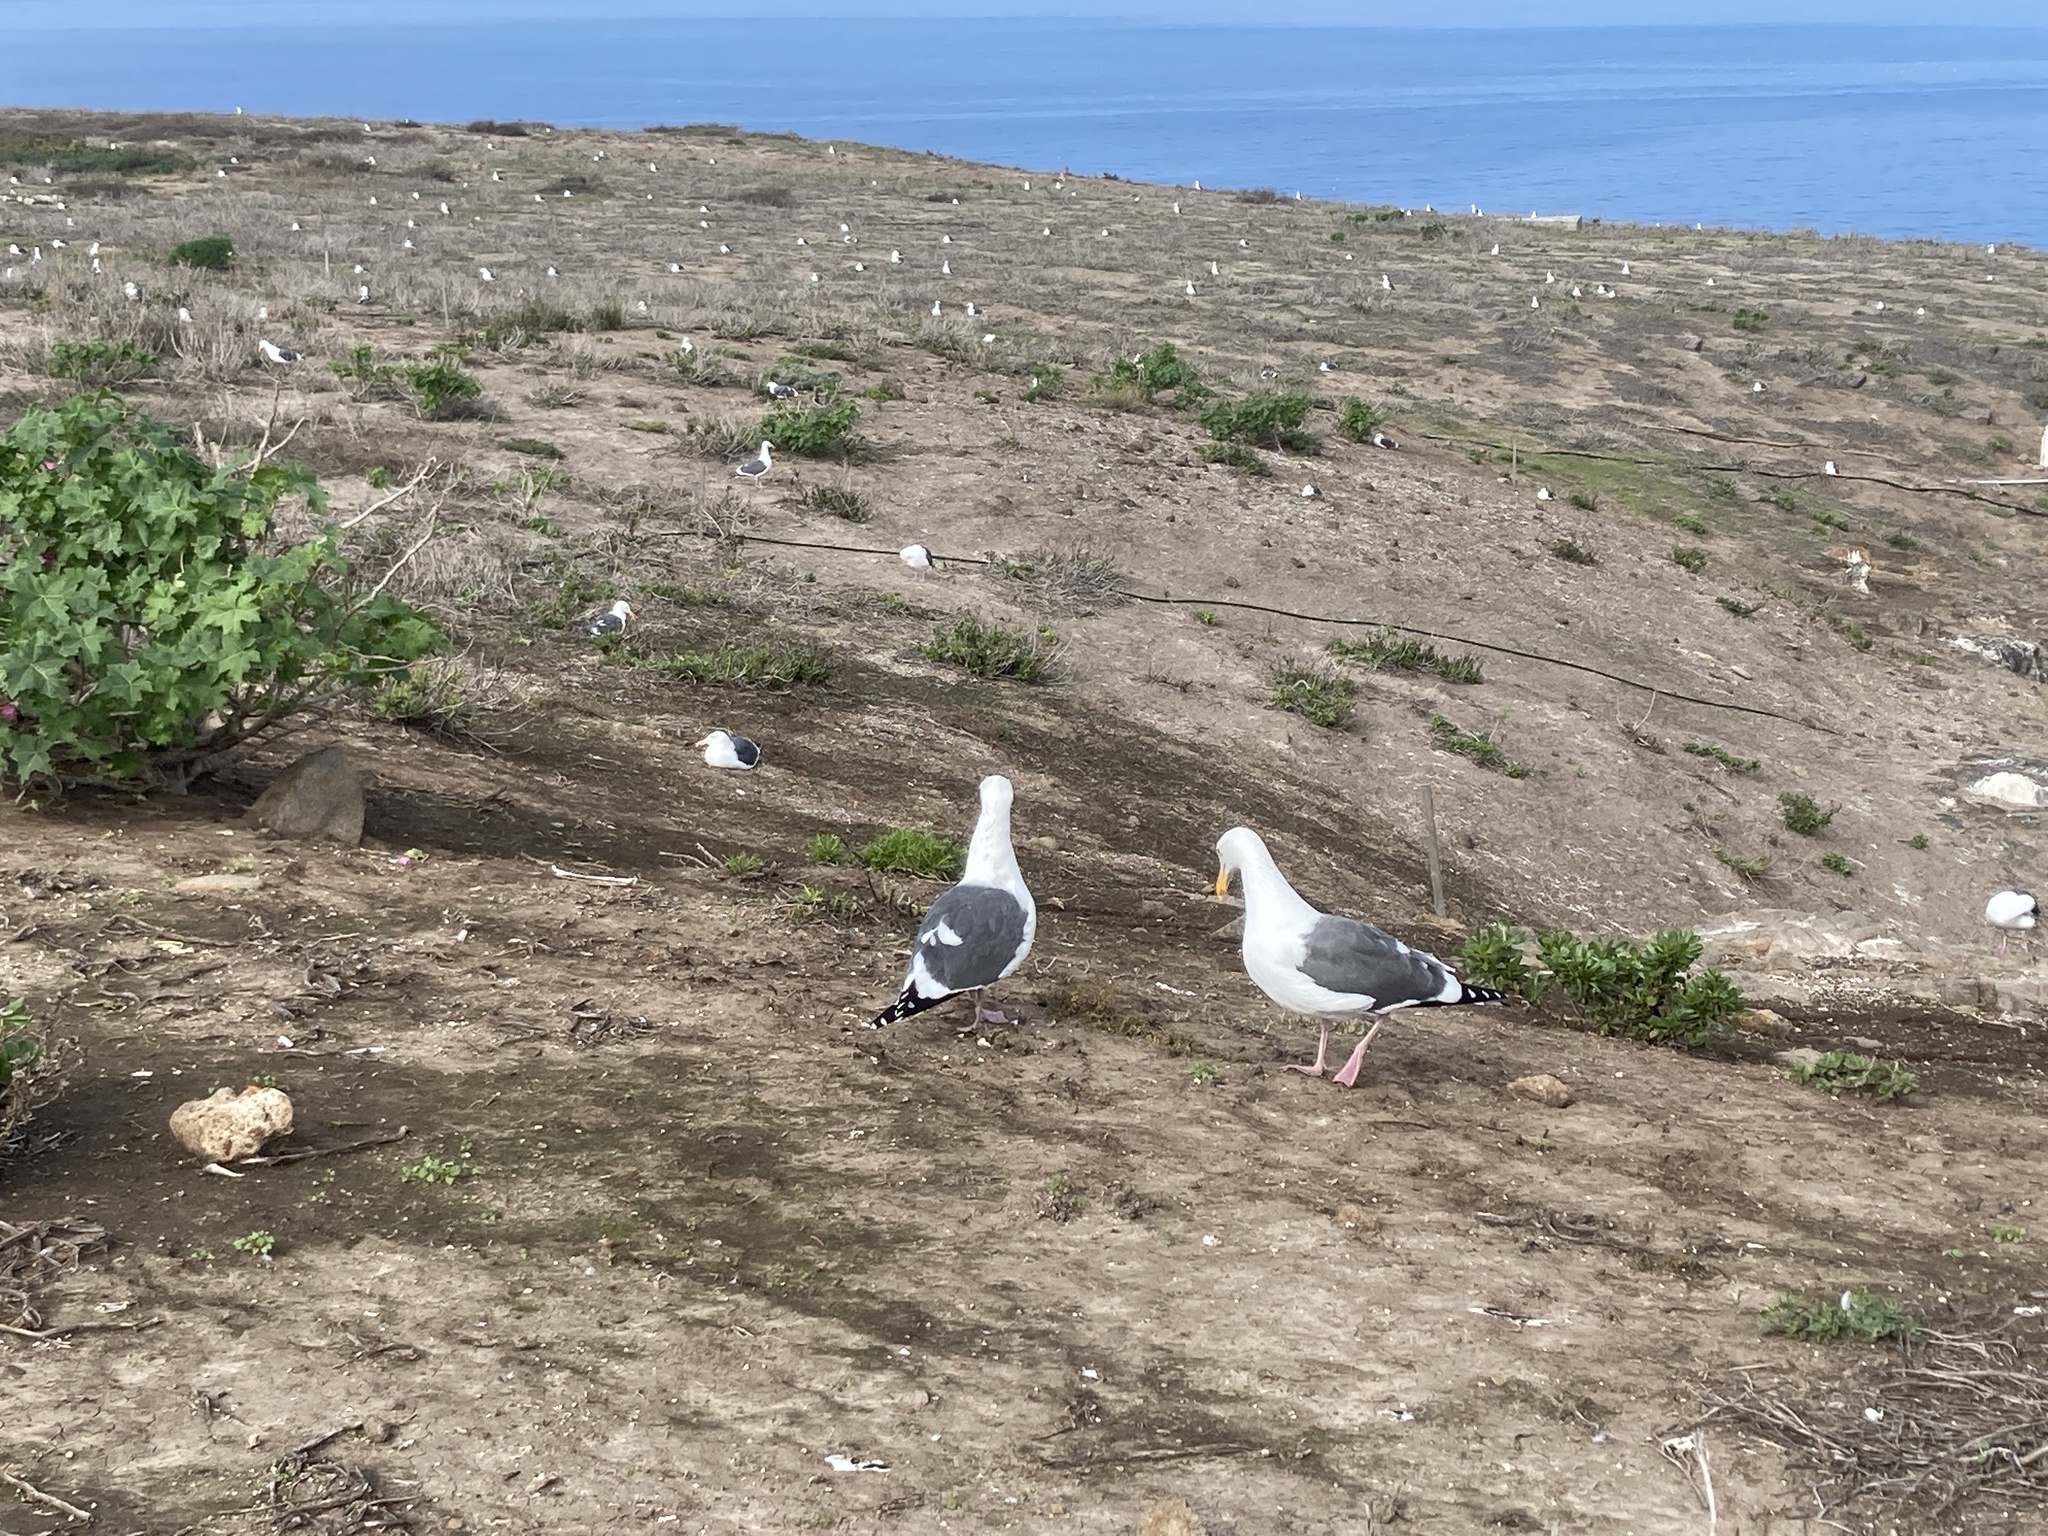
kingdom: Animalia
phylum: Chordata
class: Aves
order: Charadriiformes
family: Laridae
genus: Larus
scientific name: Larus occidentalis
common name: Western gull
